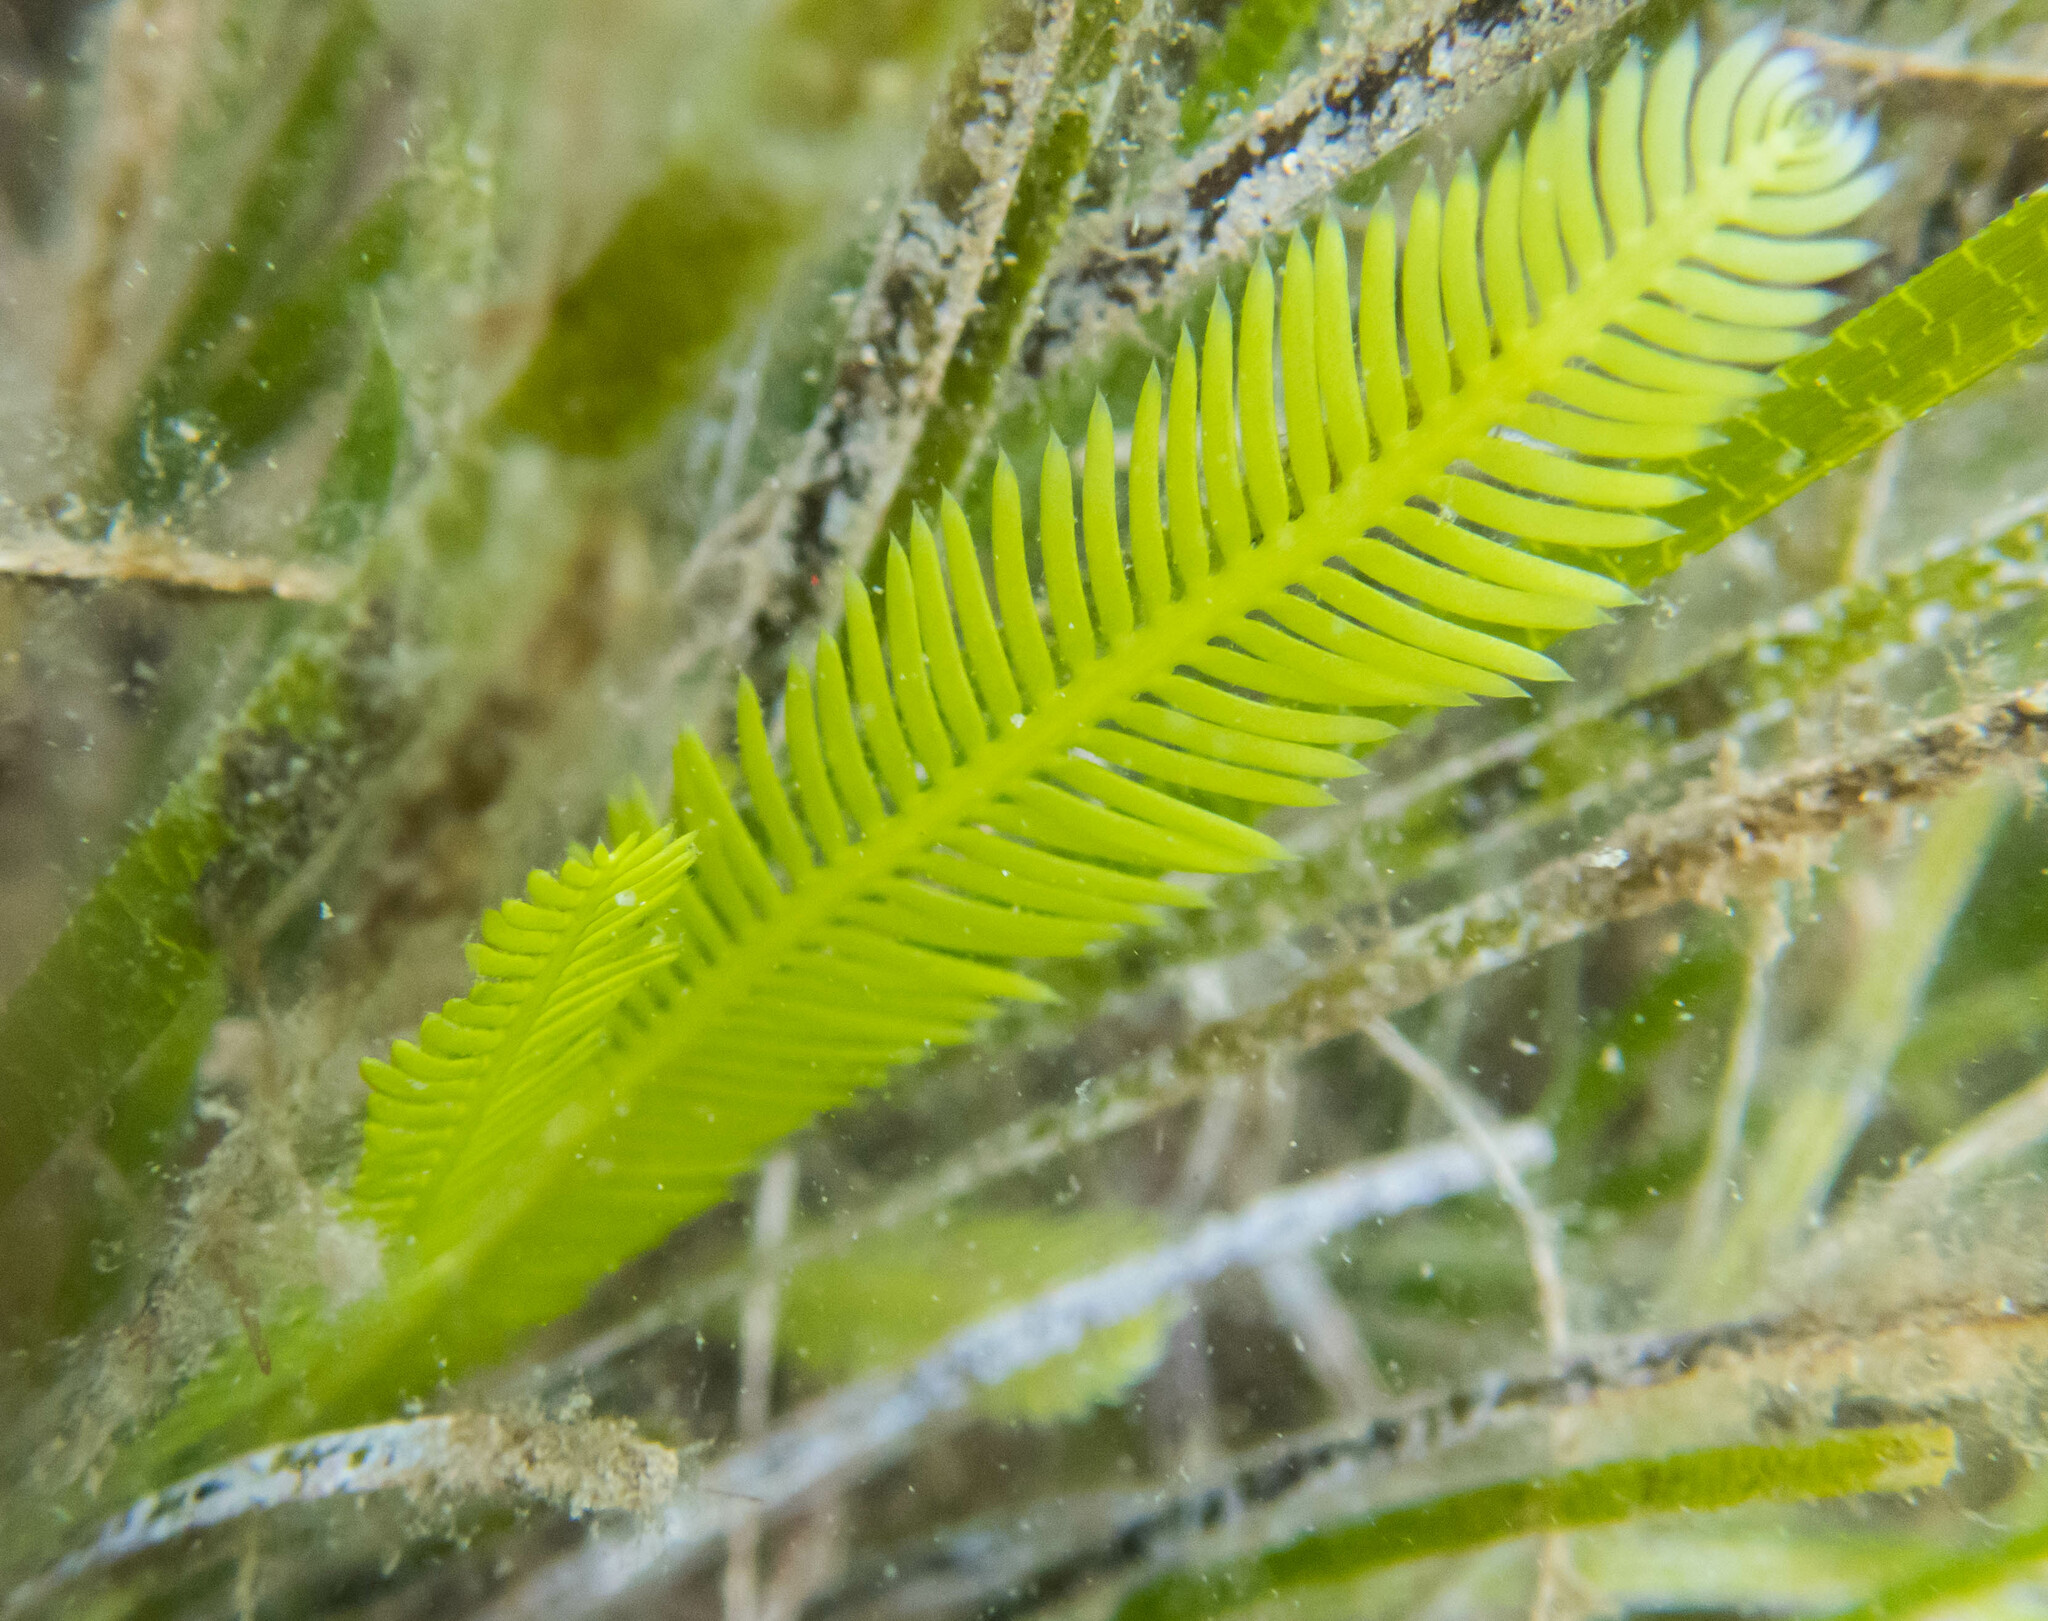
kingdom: Plantae
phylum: Chlorophyta
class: Ulvophyceae
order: Bryopsidales
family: Caulerpaceae
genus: Caulerpa
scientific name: Caulerpa taxifolia
